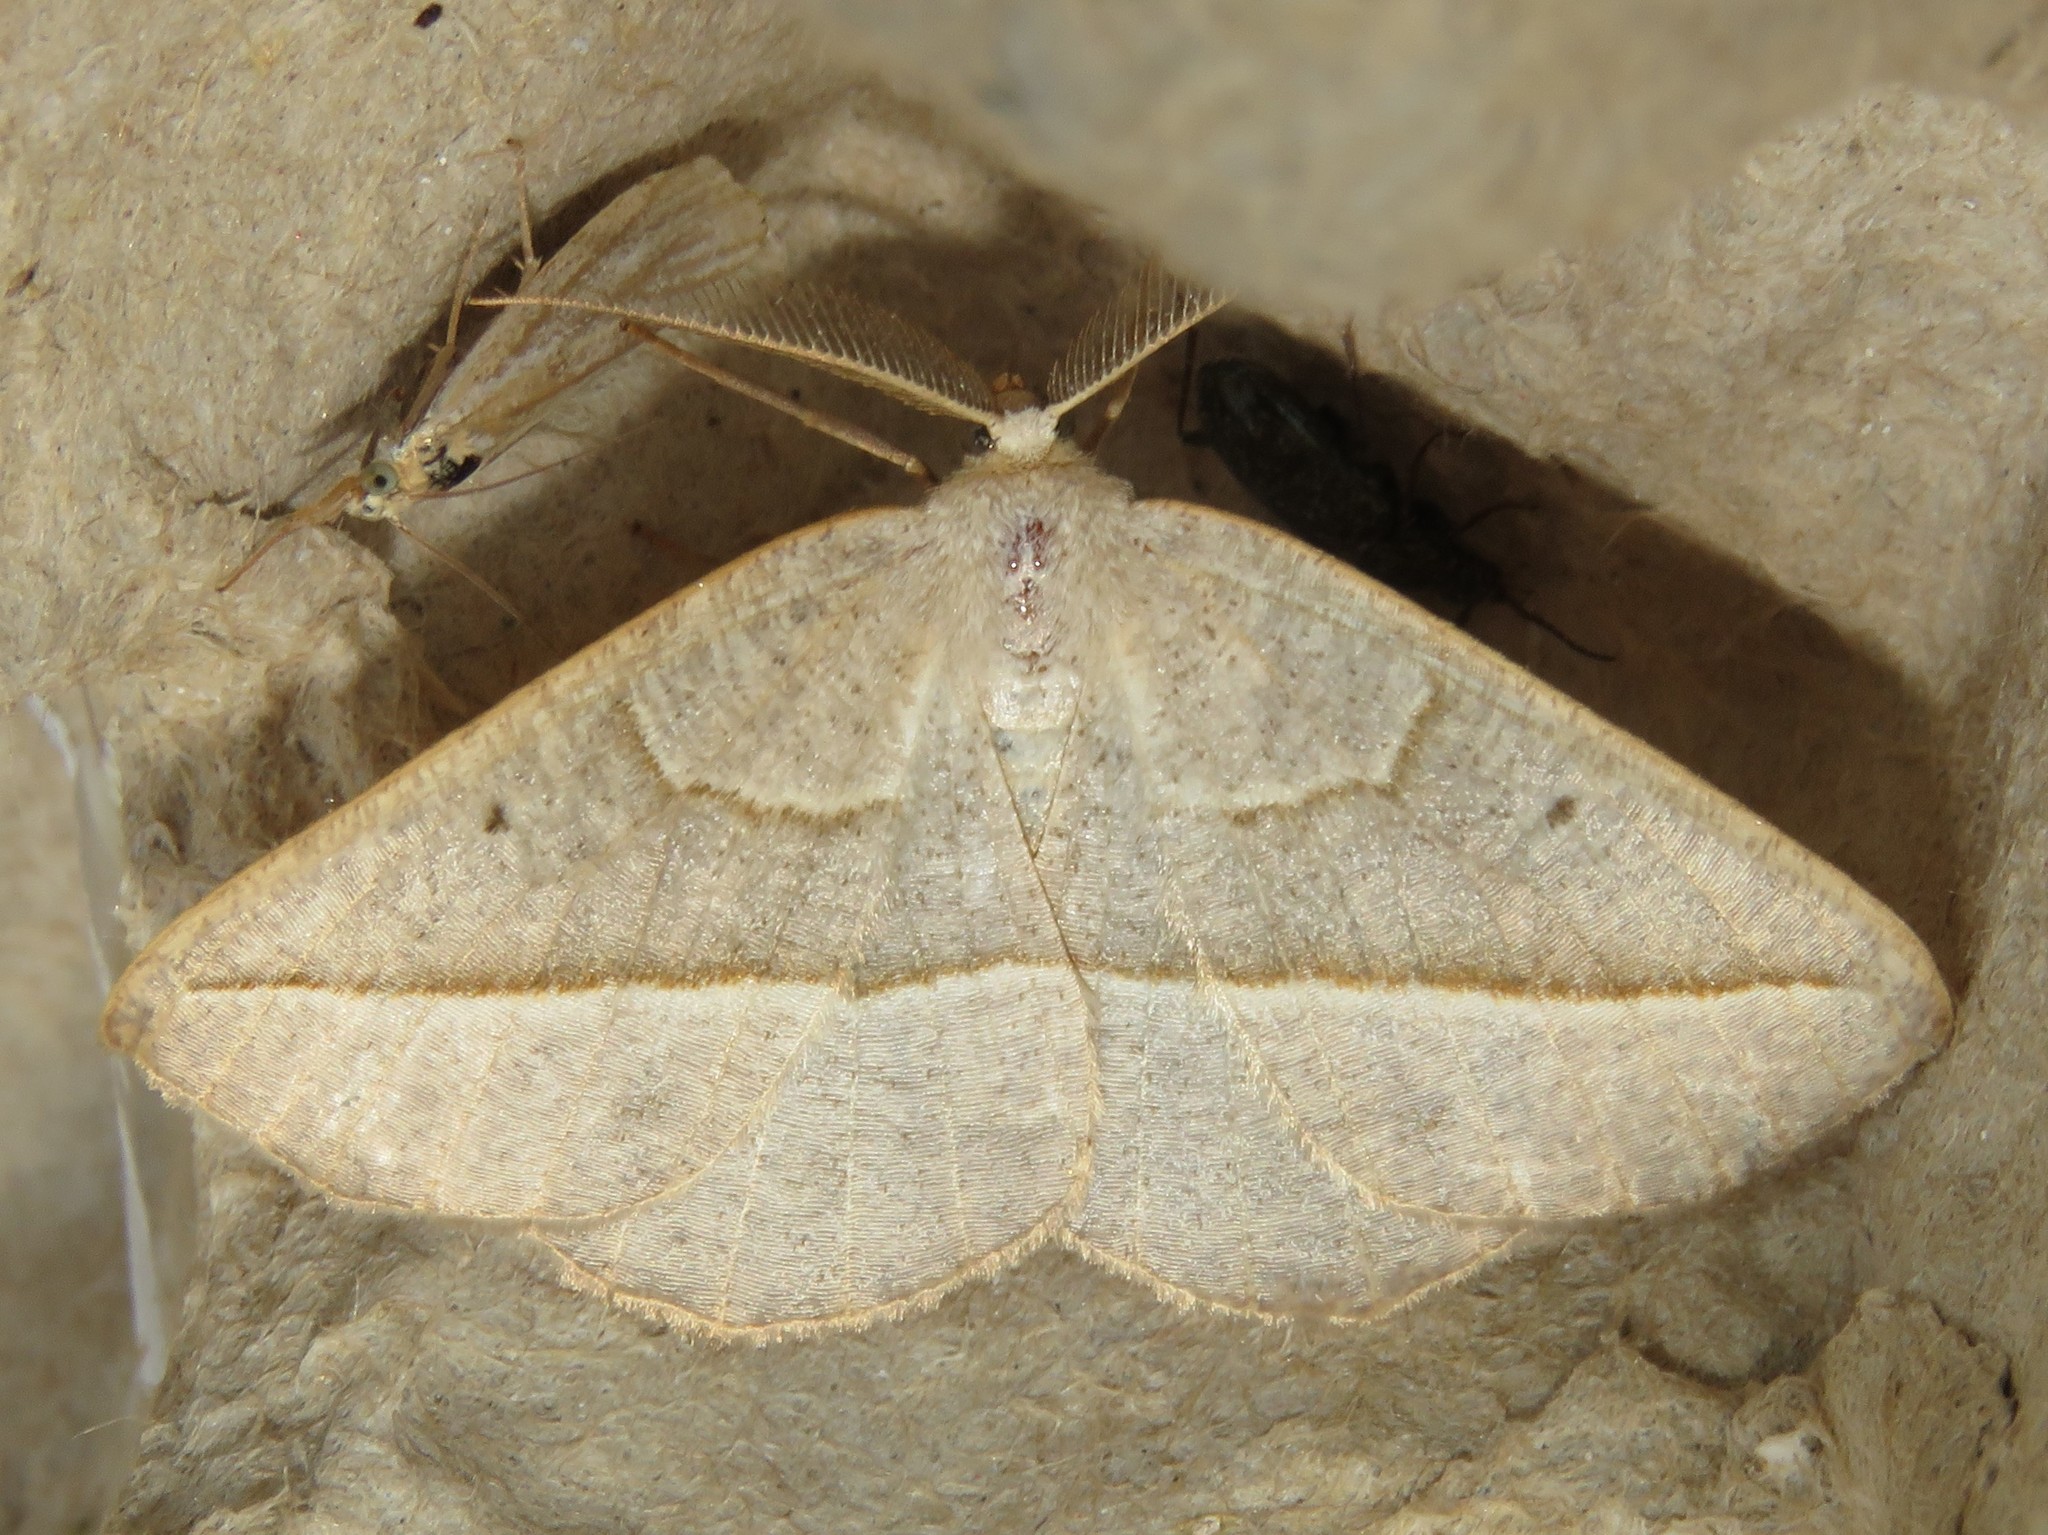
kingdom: Animalia
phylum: Arthropoda
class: Insecta
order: Lepidoptera
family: Geometridae
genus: Eusarca
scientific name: Eusarca confusaria
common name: Confused eusarca
